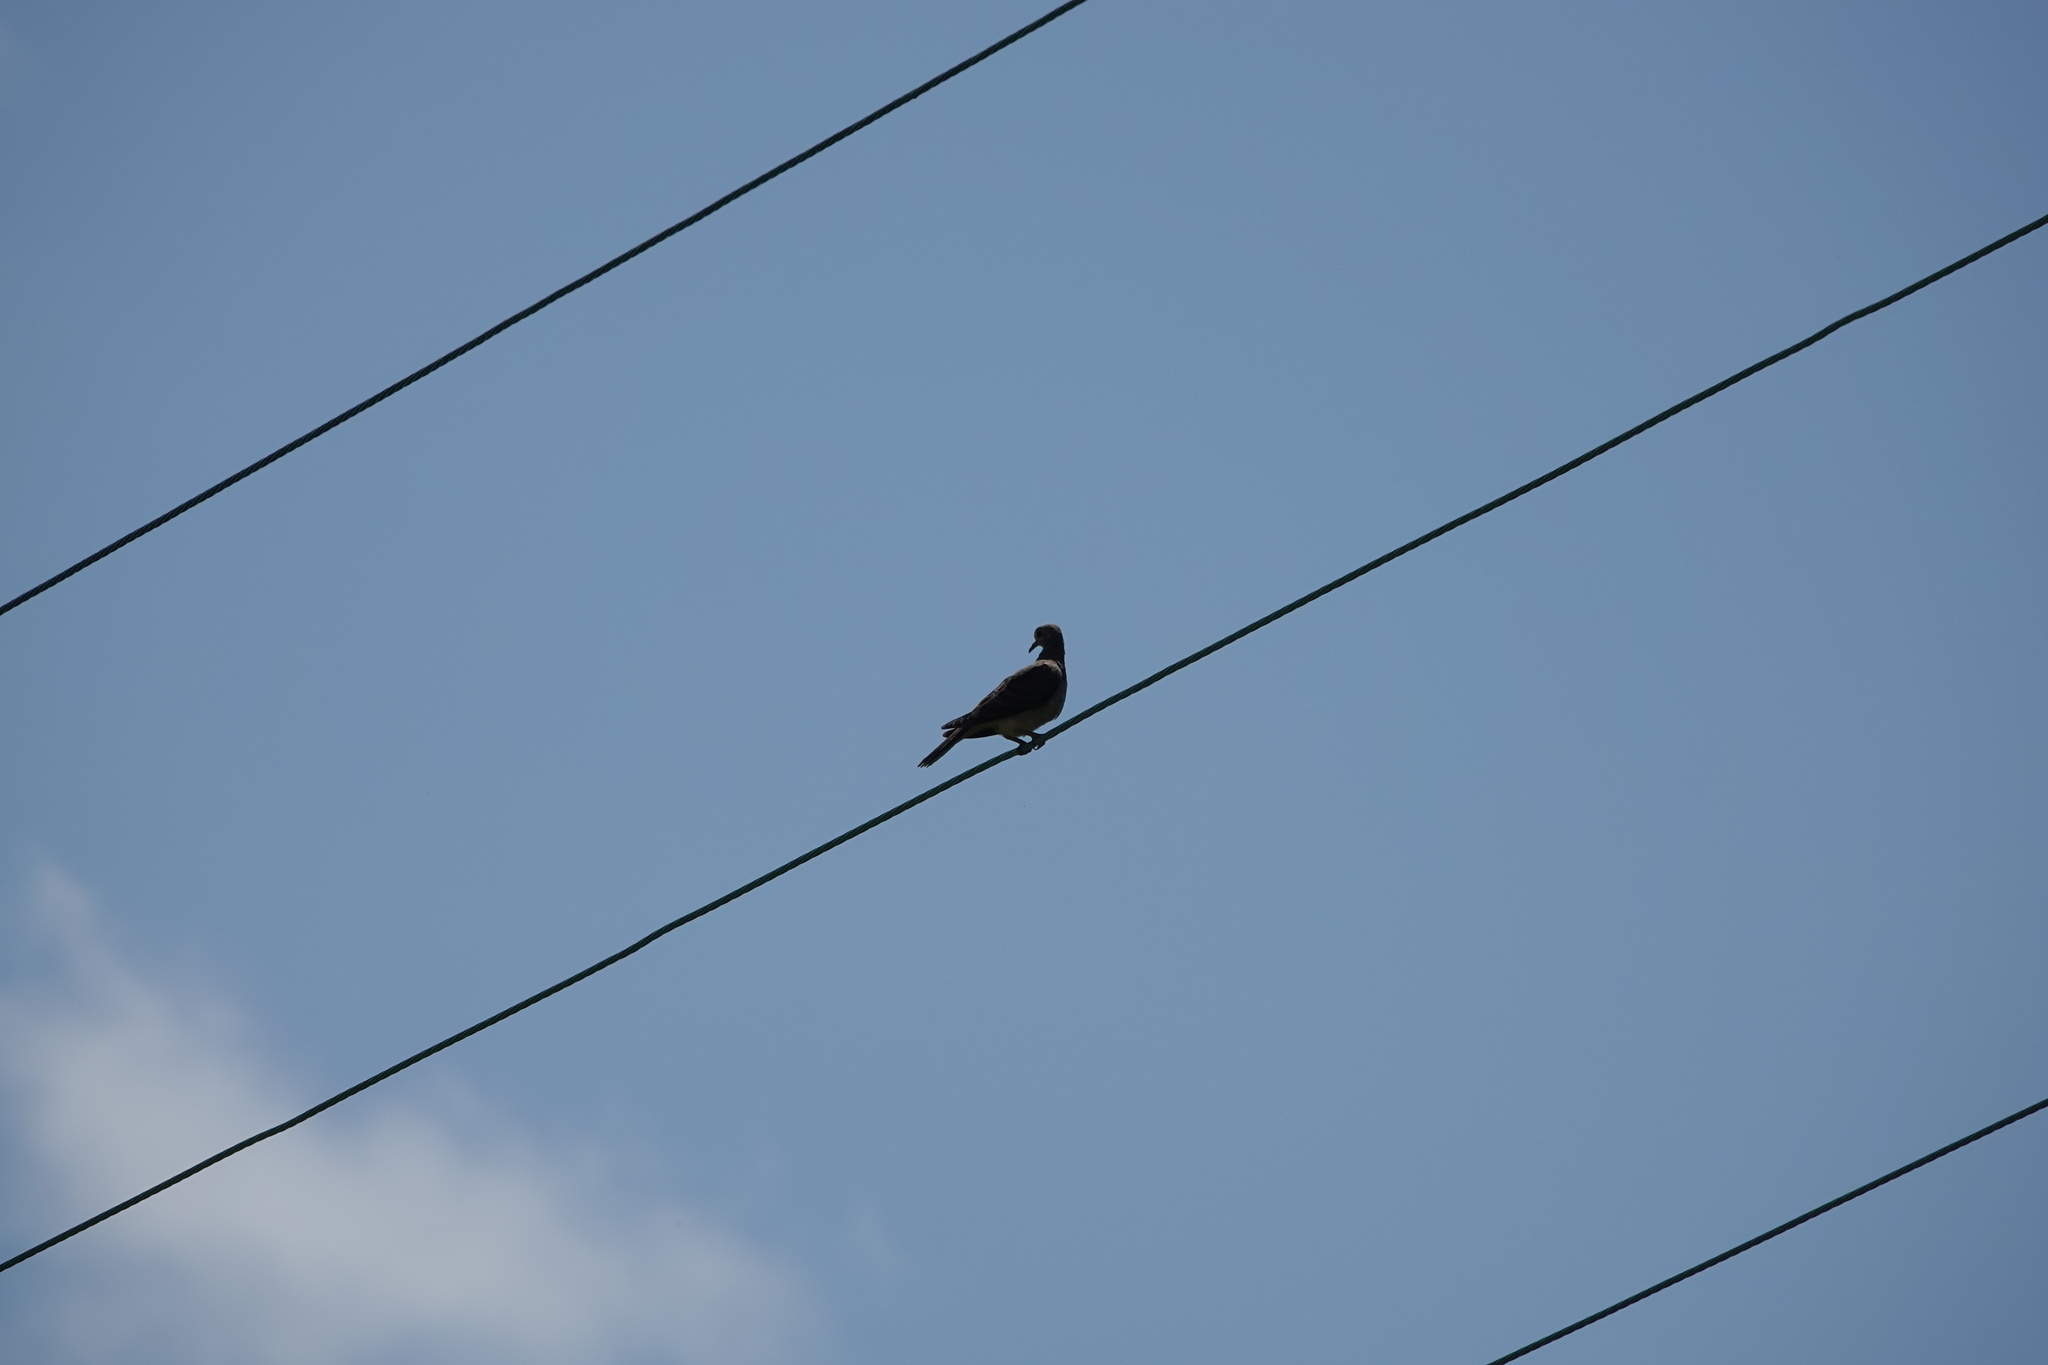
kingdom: Animalia
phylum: Chordata
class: Aves
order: Columbiformes
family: Columbidae
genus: Zenaida
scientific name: Zenaida macroura
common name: Mourning dove
